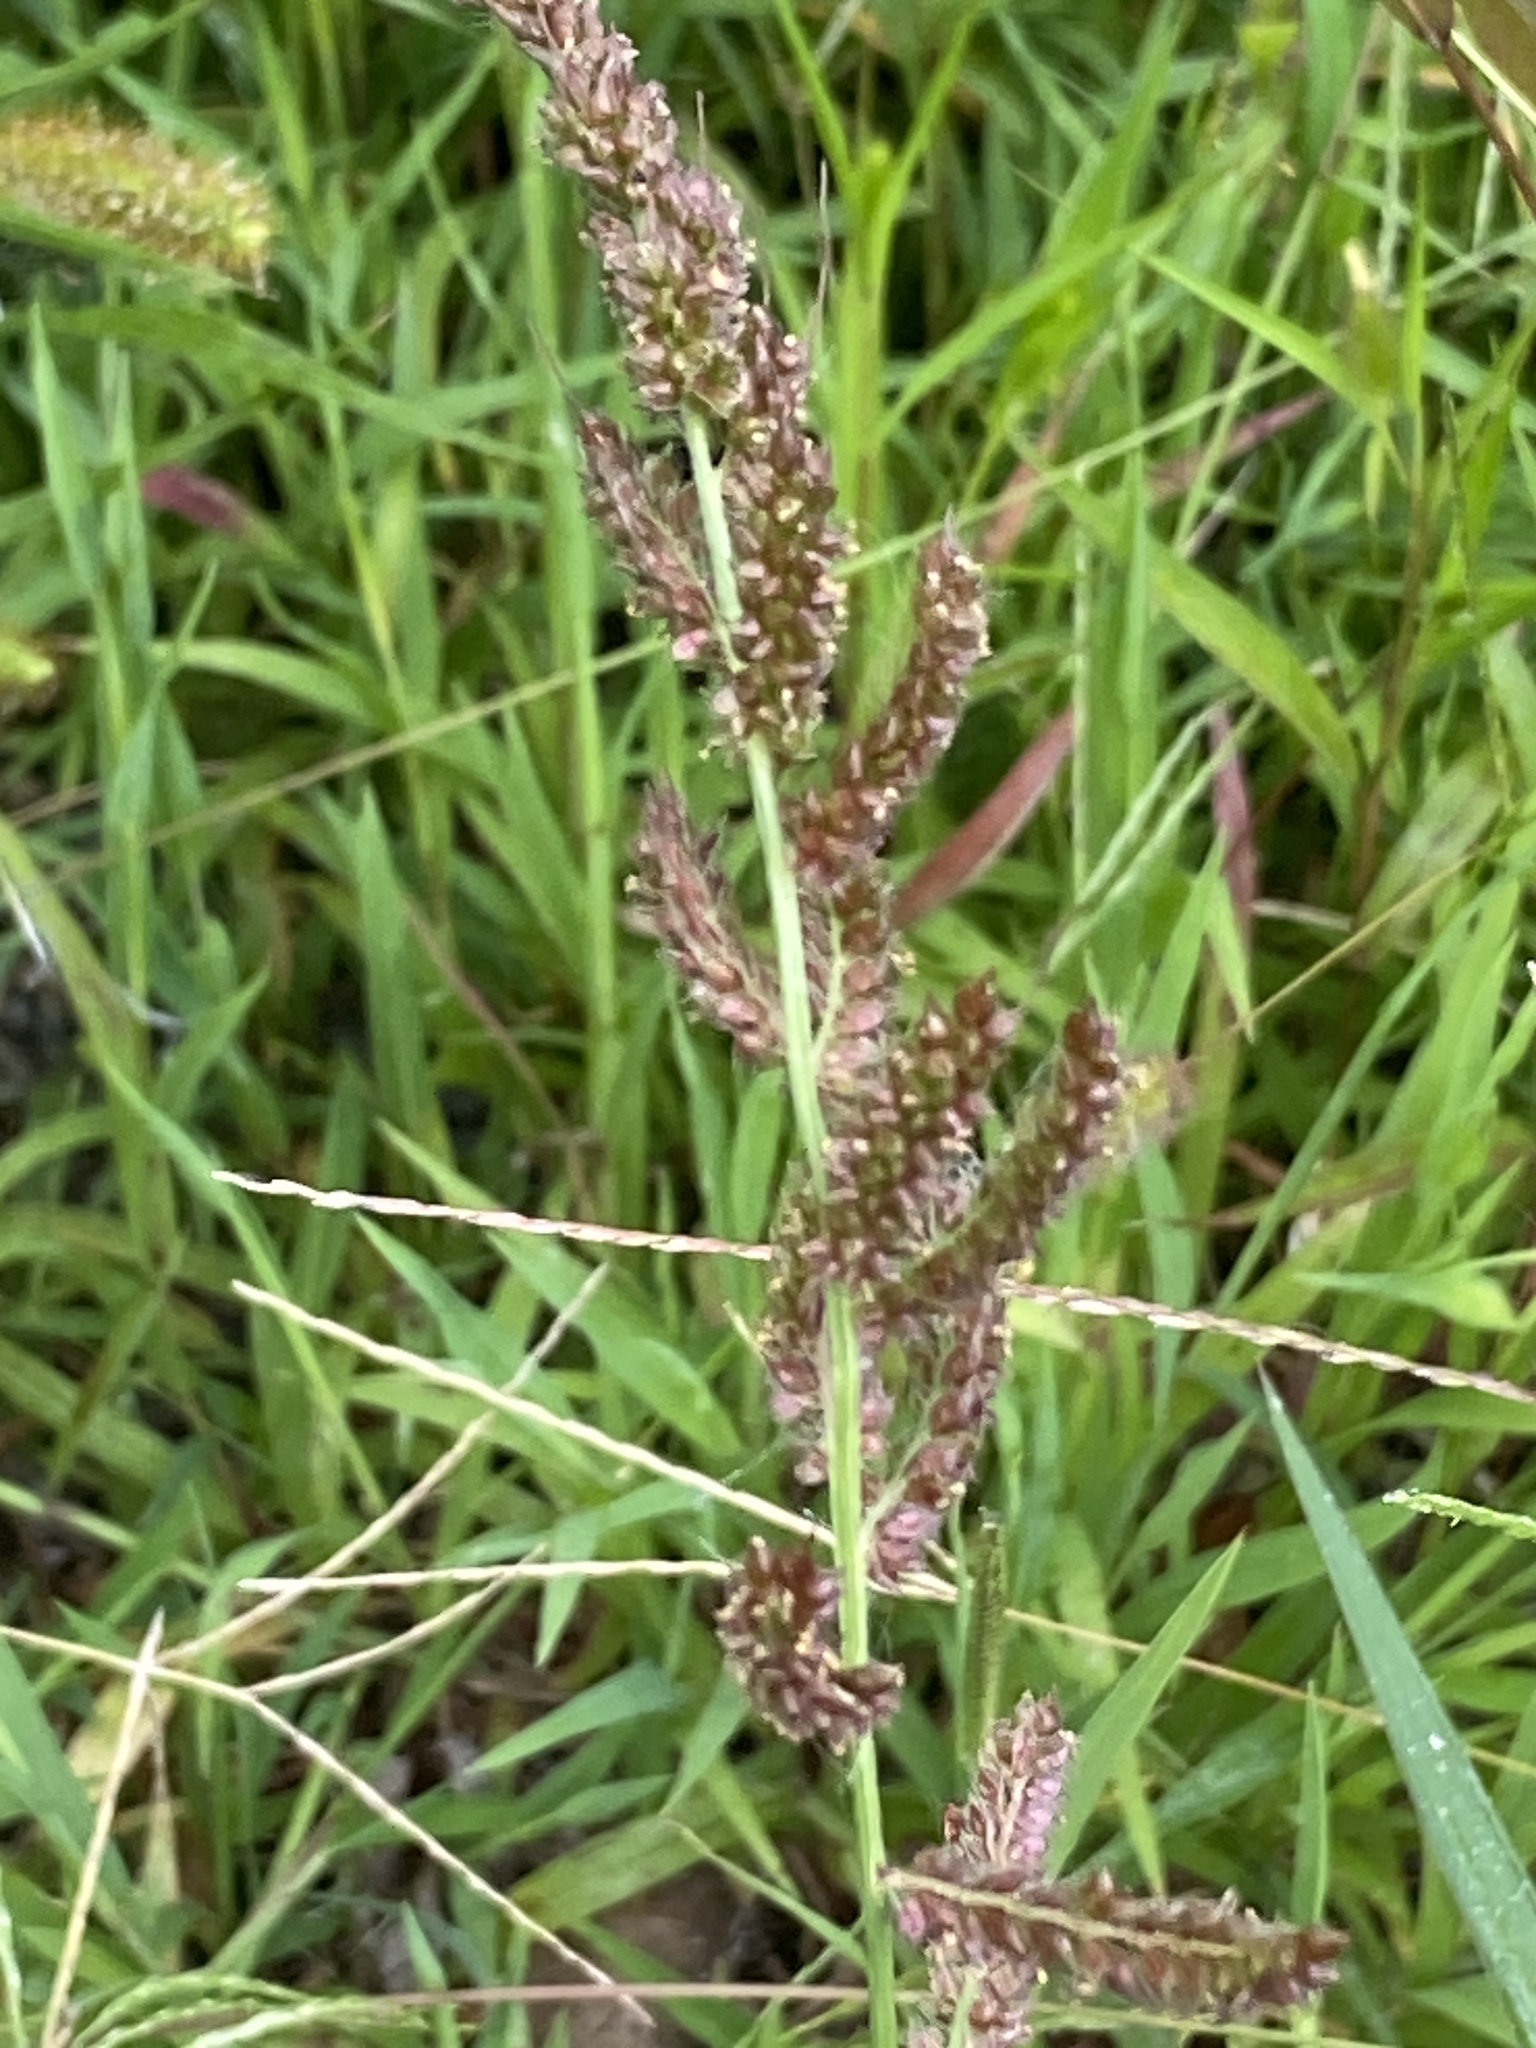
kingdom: Plantae
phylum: Tracheophyta
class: Liliopsida
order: Poales
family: Poaceae
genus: Echinochloa
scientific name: Echinochloa crus-galli
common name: Cockspur
